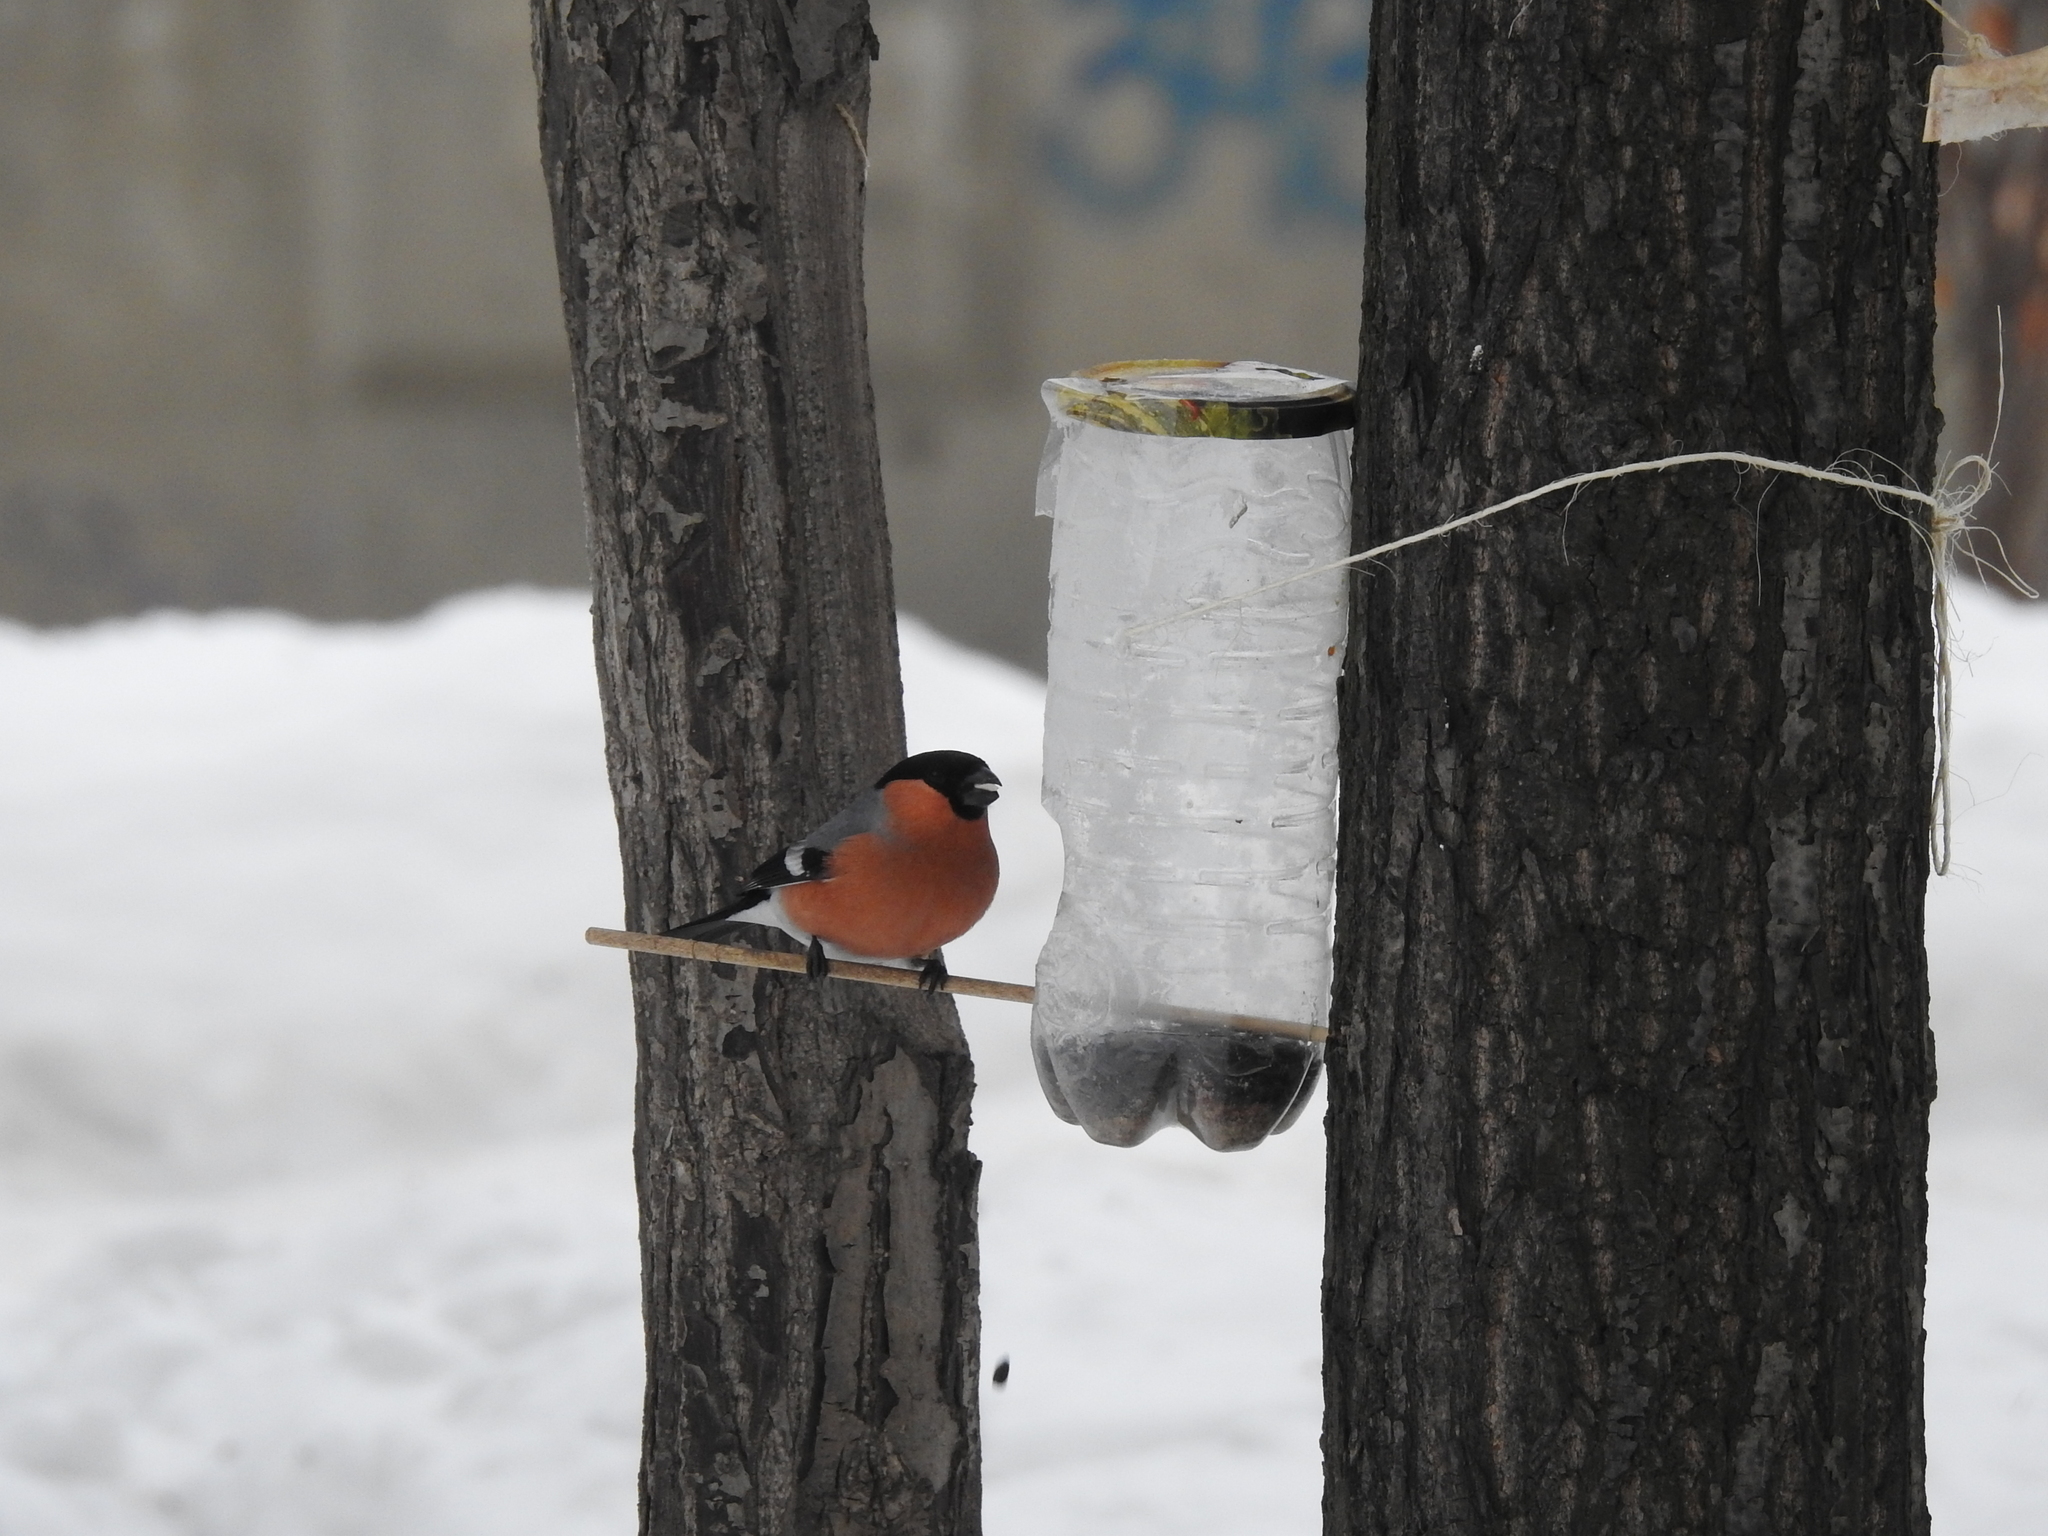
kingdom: Animalia
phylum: Chordata
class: Aves
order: Passeriformes
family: Fringillidae
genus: Pyrrhula
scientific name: Pyrrhula pyrrhula
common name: Eurasian bullfinch
